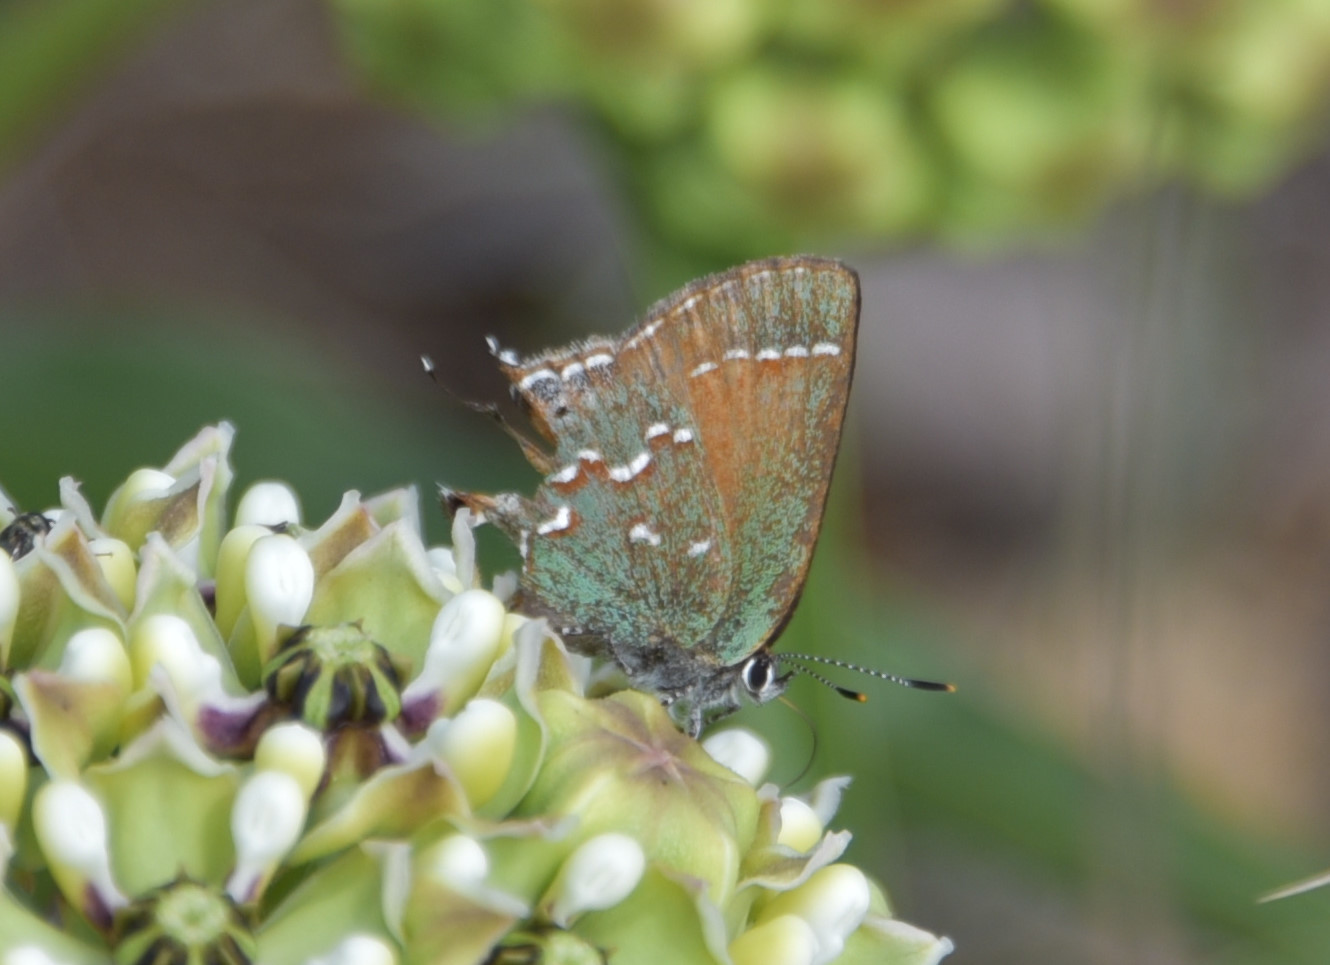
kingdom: Animalia
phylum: Arthropoda
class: Insecta
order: Lepidoptera
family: Lycaenidae
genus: Mitoura
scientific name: Mitoura gryneus
